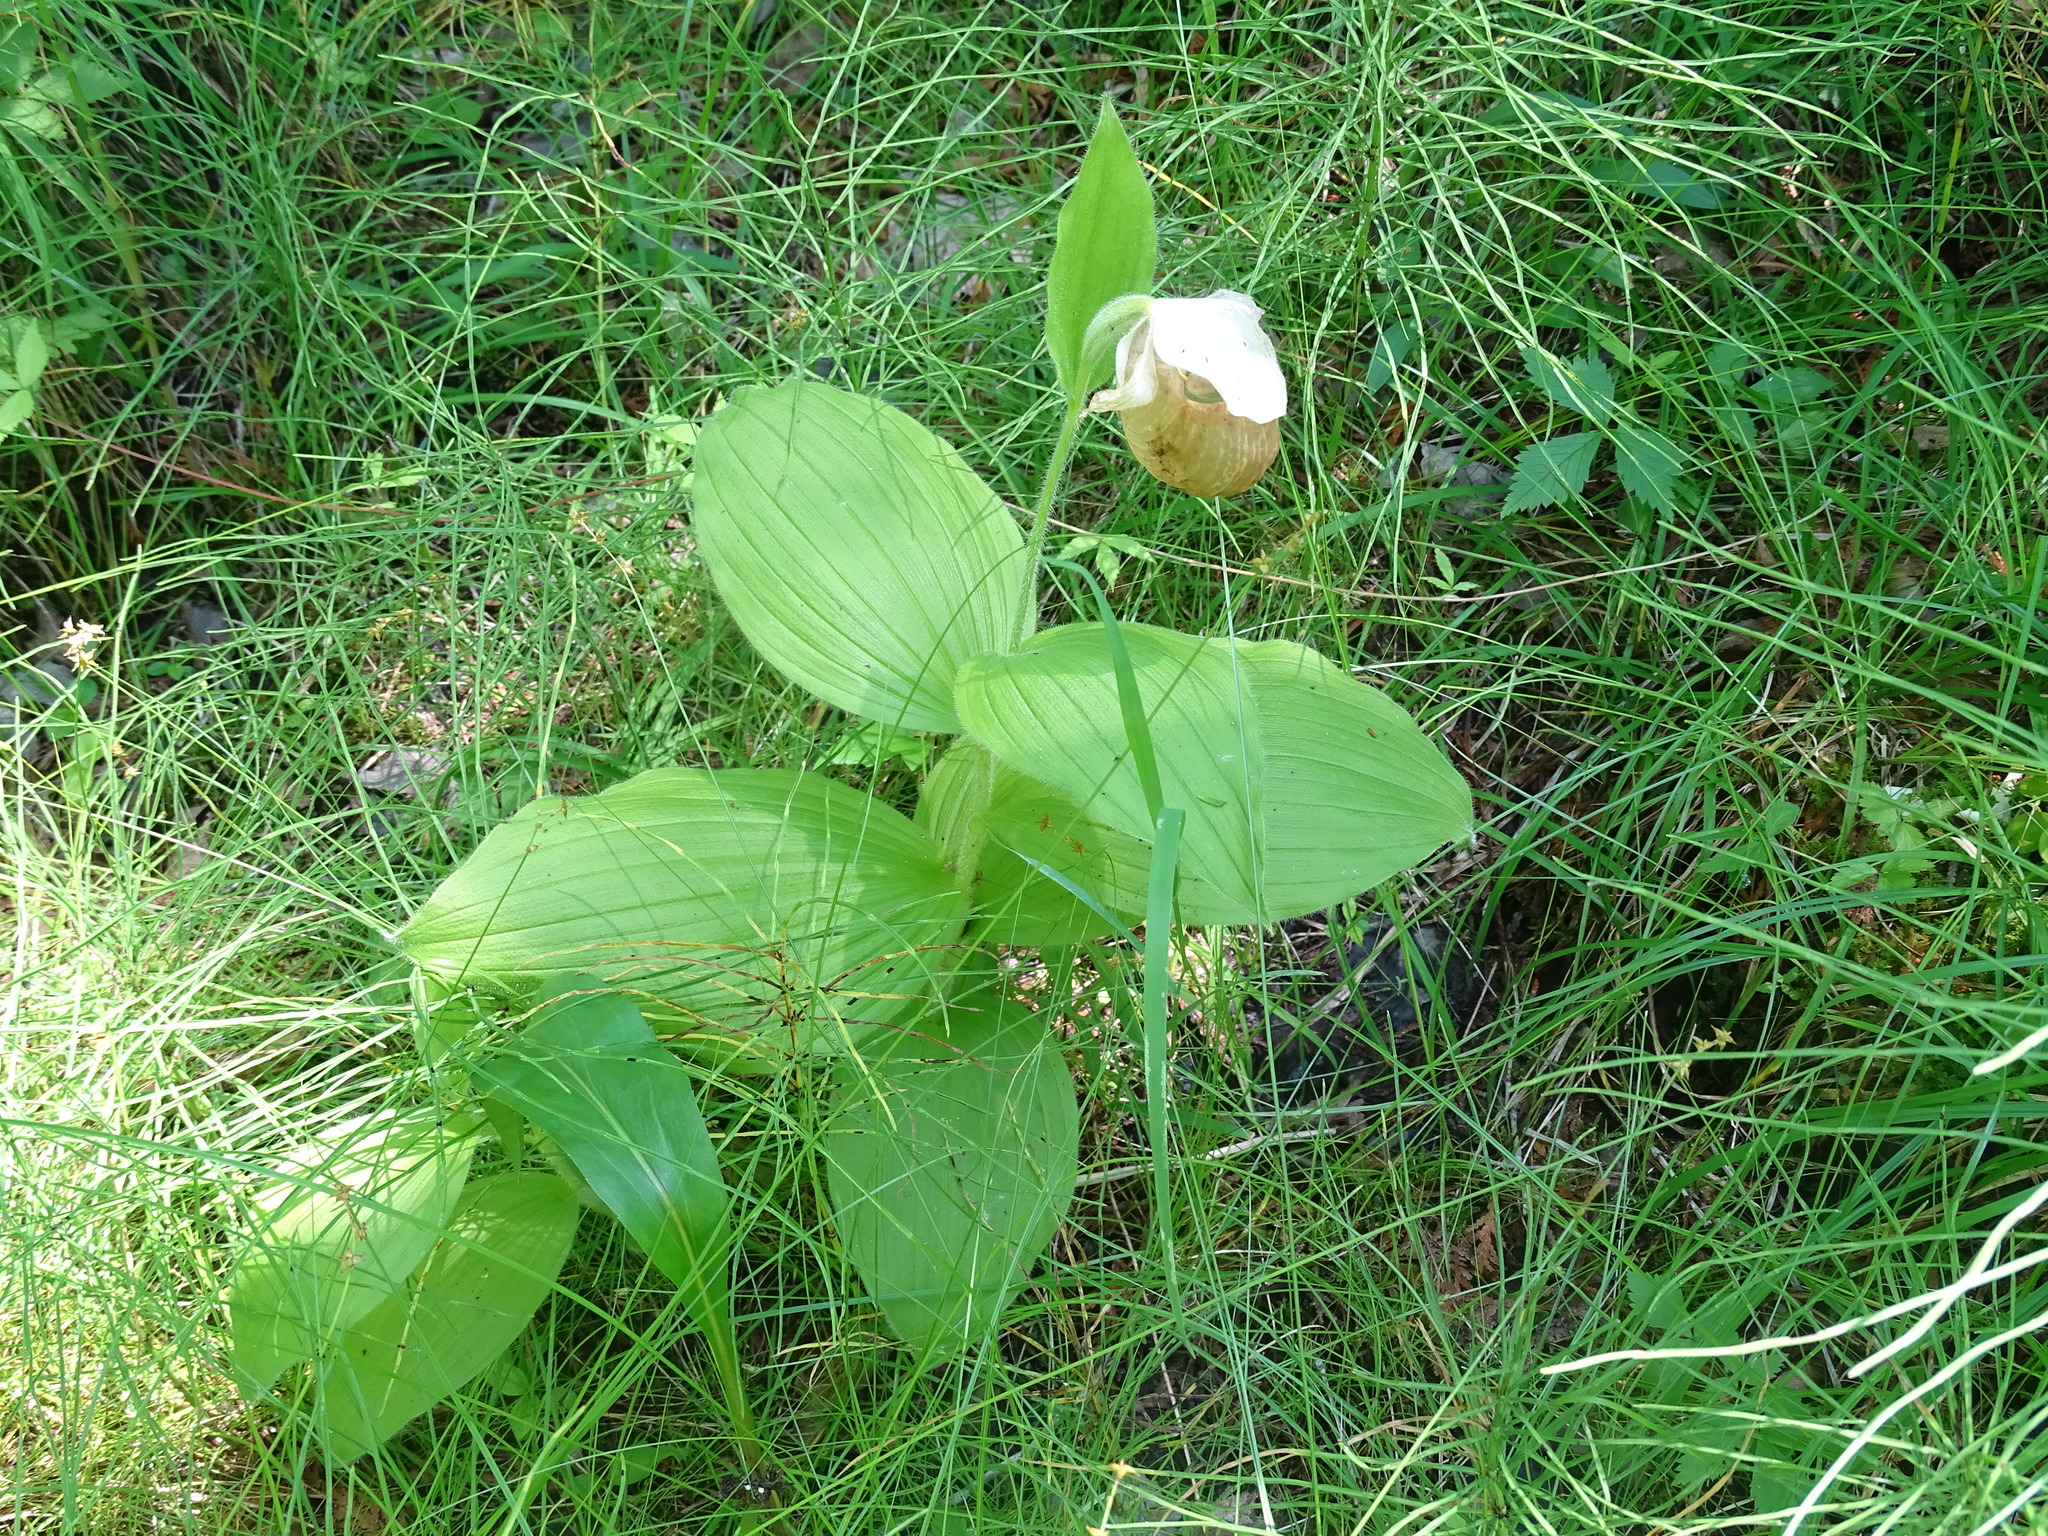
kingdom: Plantae
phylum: Tracheophyta
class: Liliopsida
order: Asparagales
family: Orchidaceae
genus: Cypripedium
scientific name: Cypripedium reginae
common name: Queen lady's-slipper
